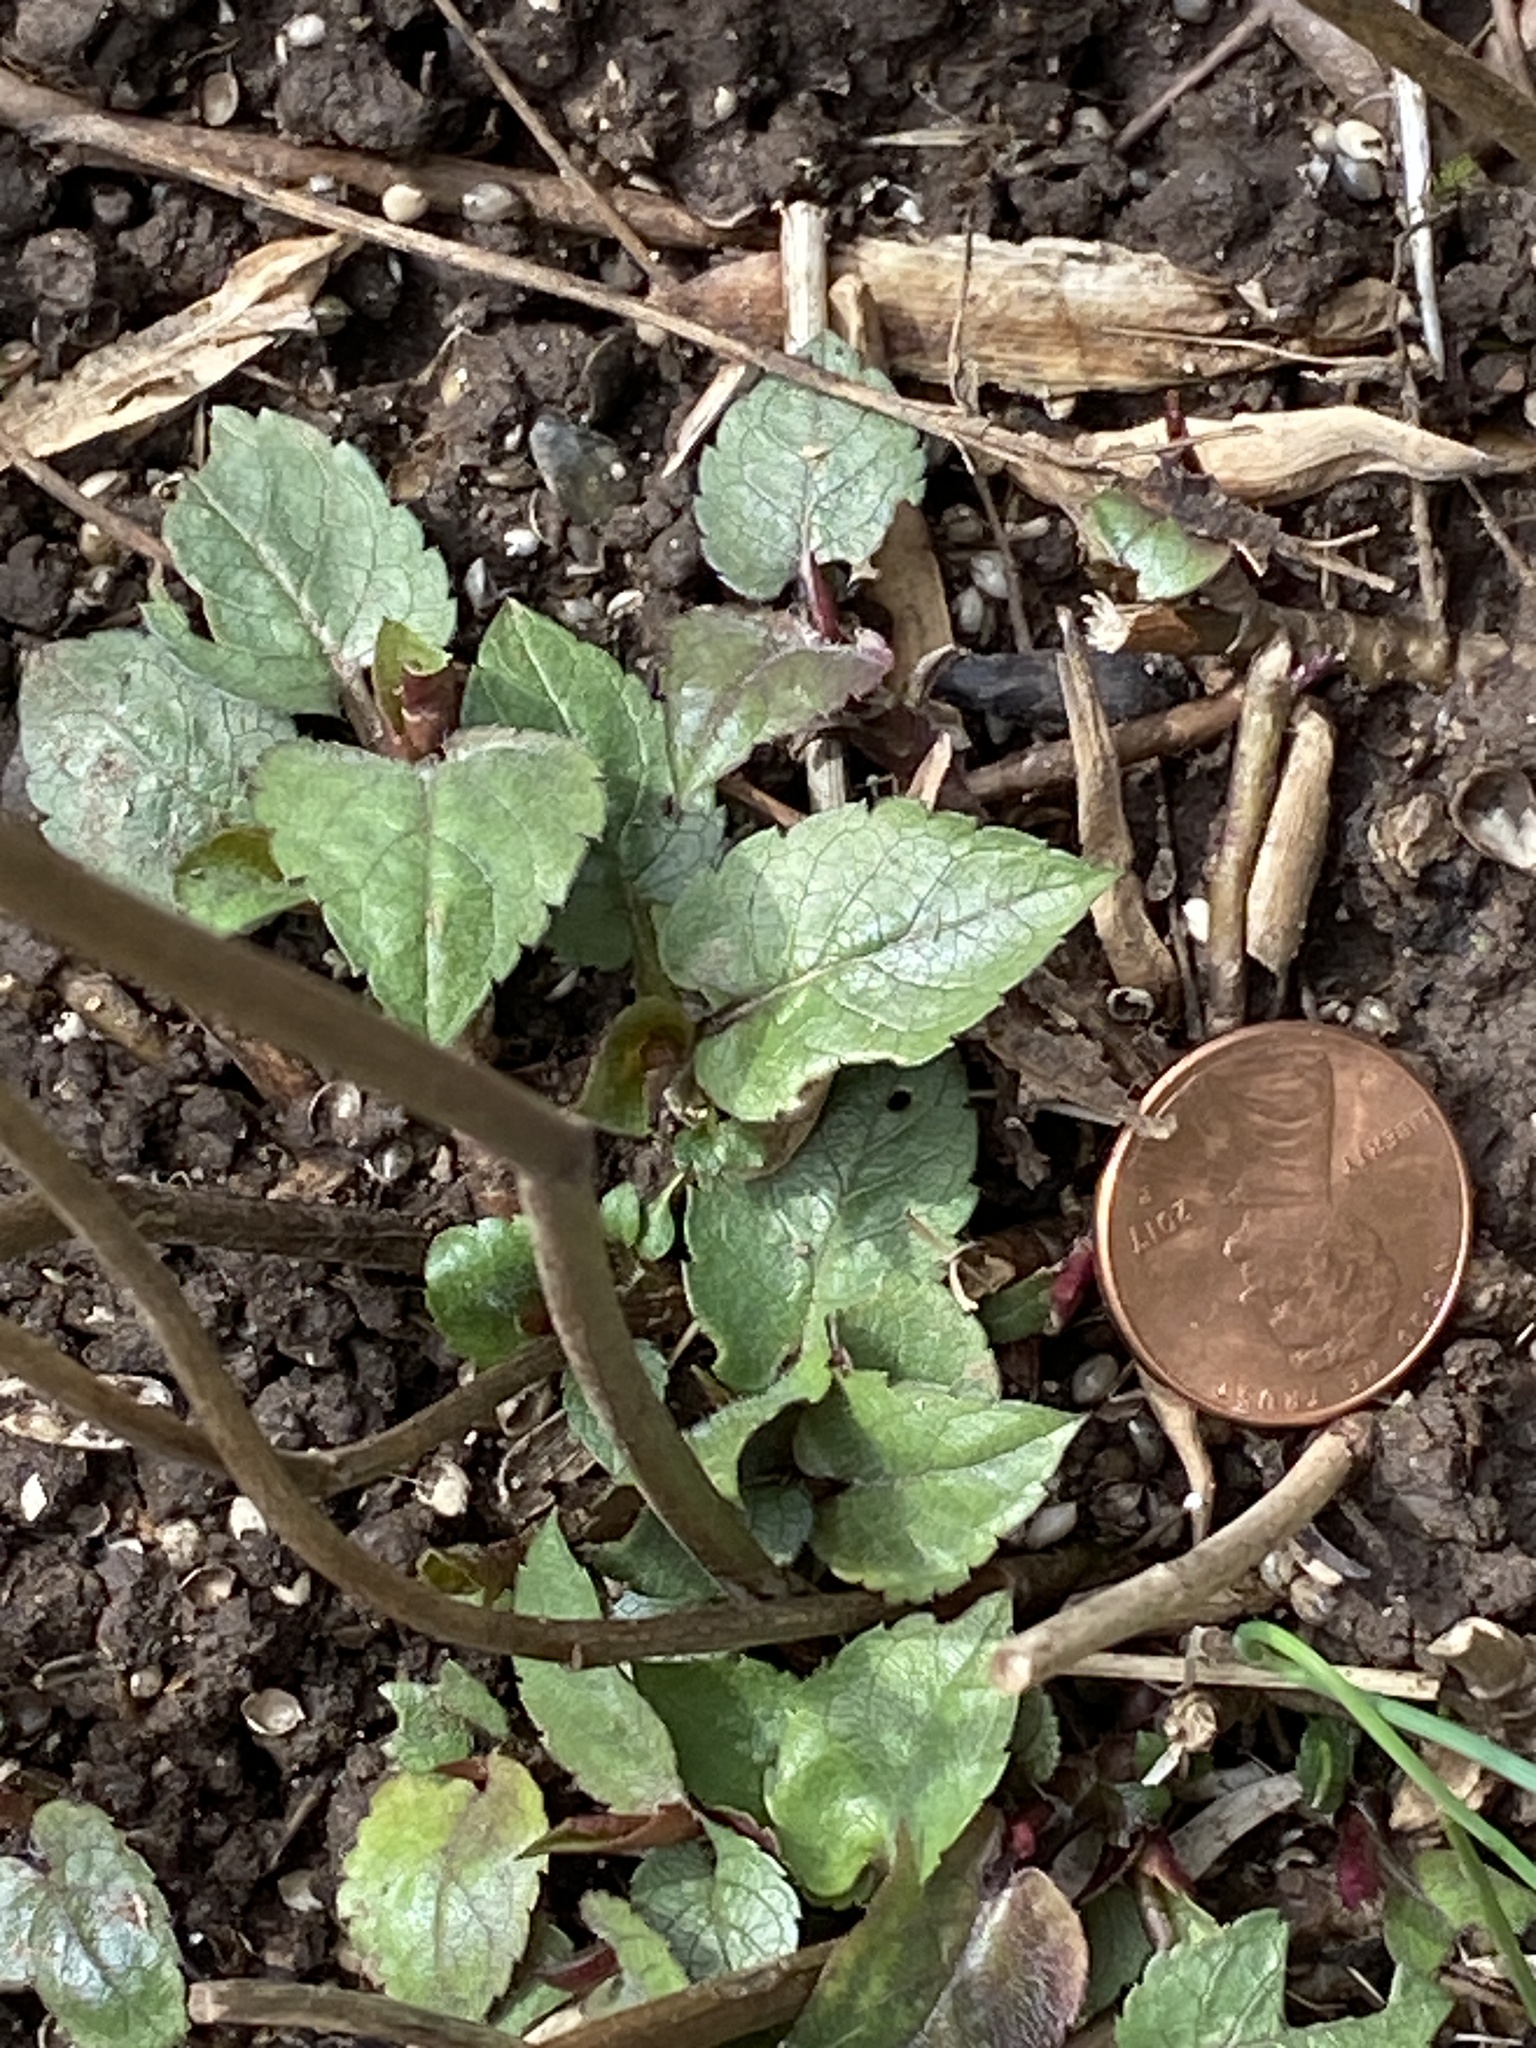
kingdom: Plantae
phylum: Tracheophyta
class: Magnoliopsida
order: Asterales
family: Asteraceae
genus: Eurybia
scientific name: Eurybia divaricata
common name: White wood aster
